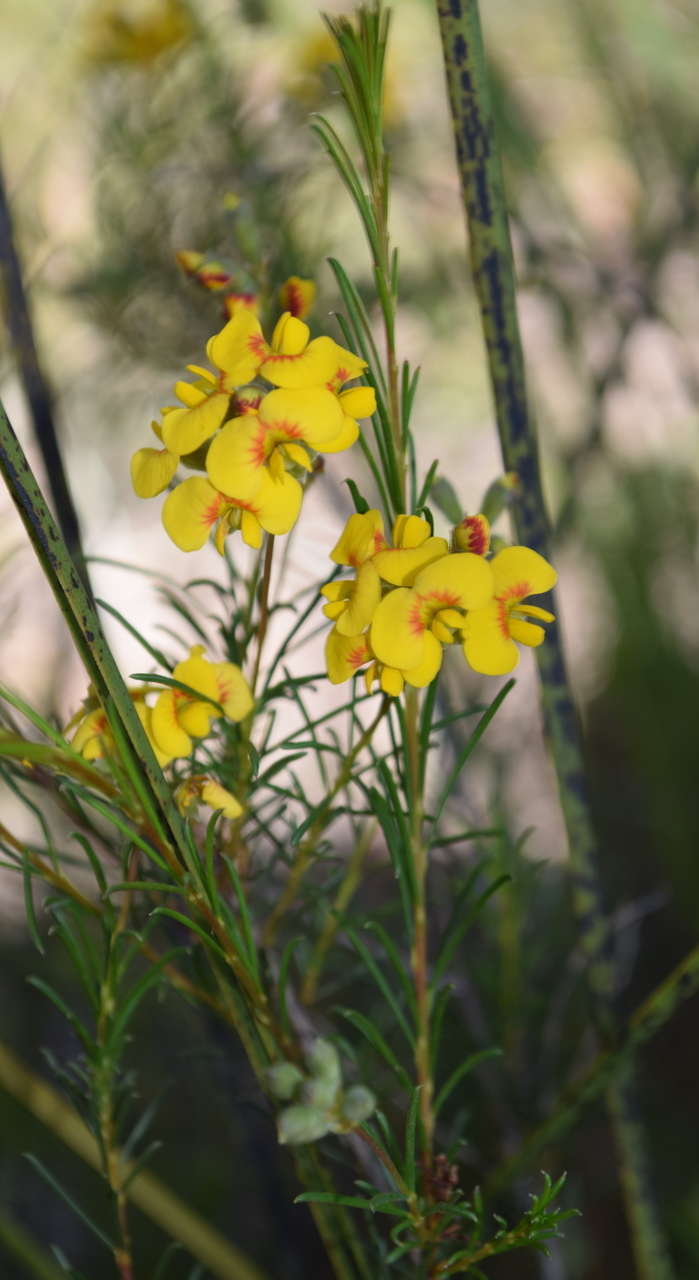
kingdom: Plantae
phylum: Tracheophyta
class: Magnoliopsida
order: Fabales
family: Fabaceae
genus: Dillwynia
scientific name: Dillwynia glaberrima
